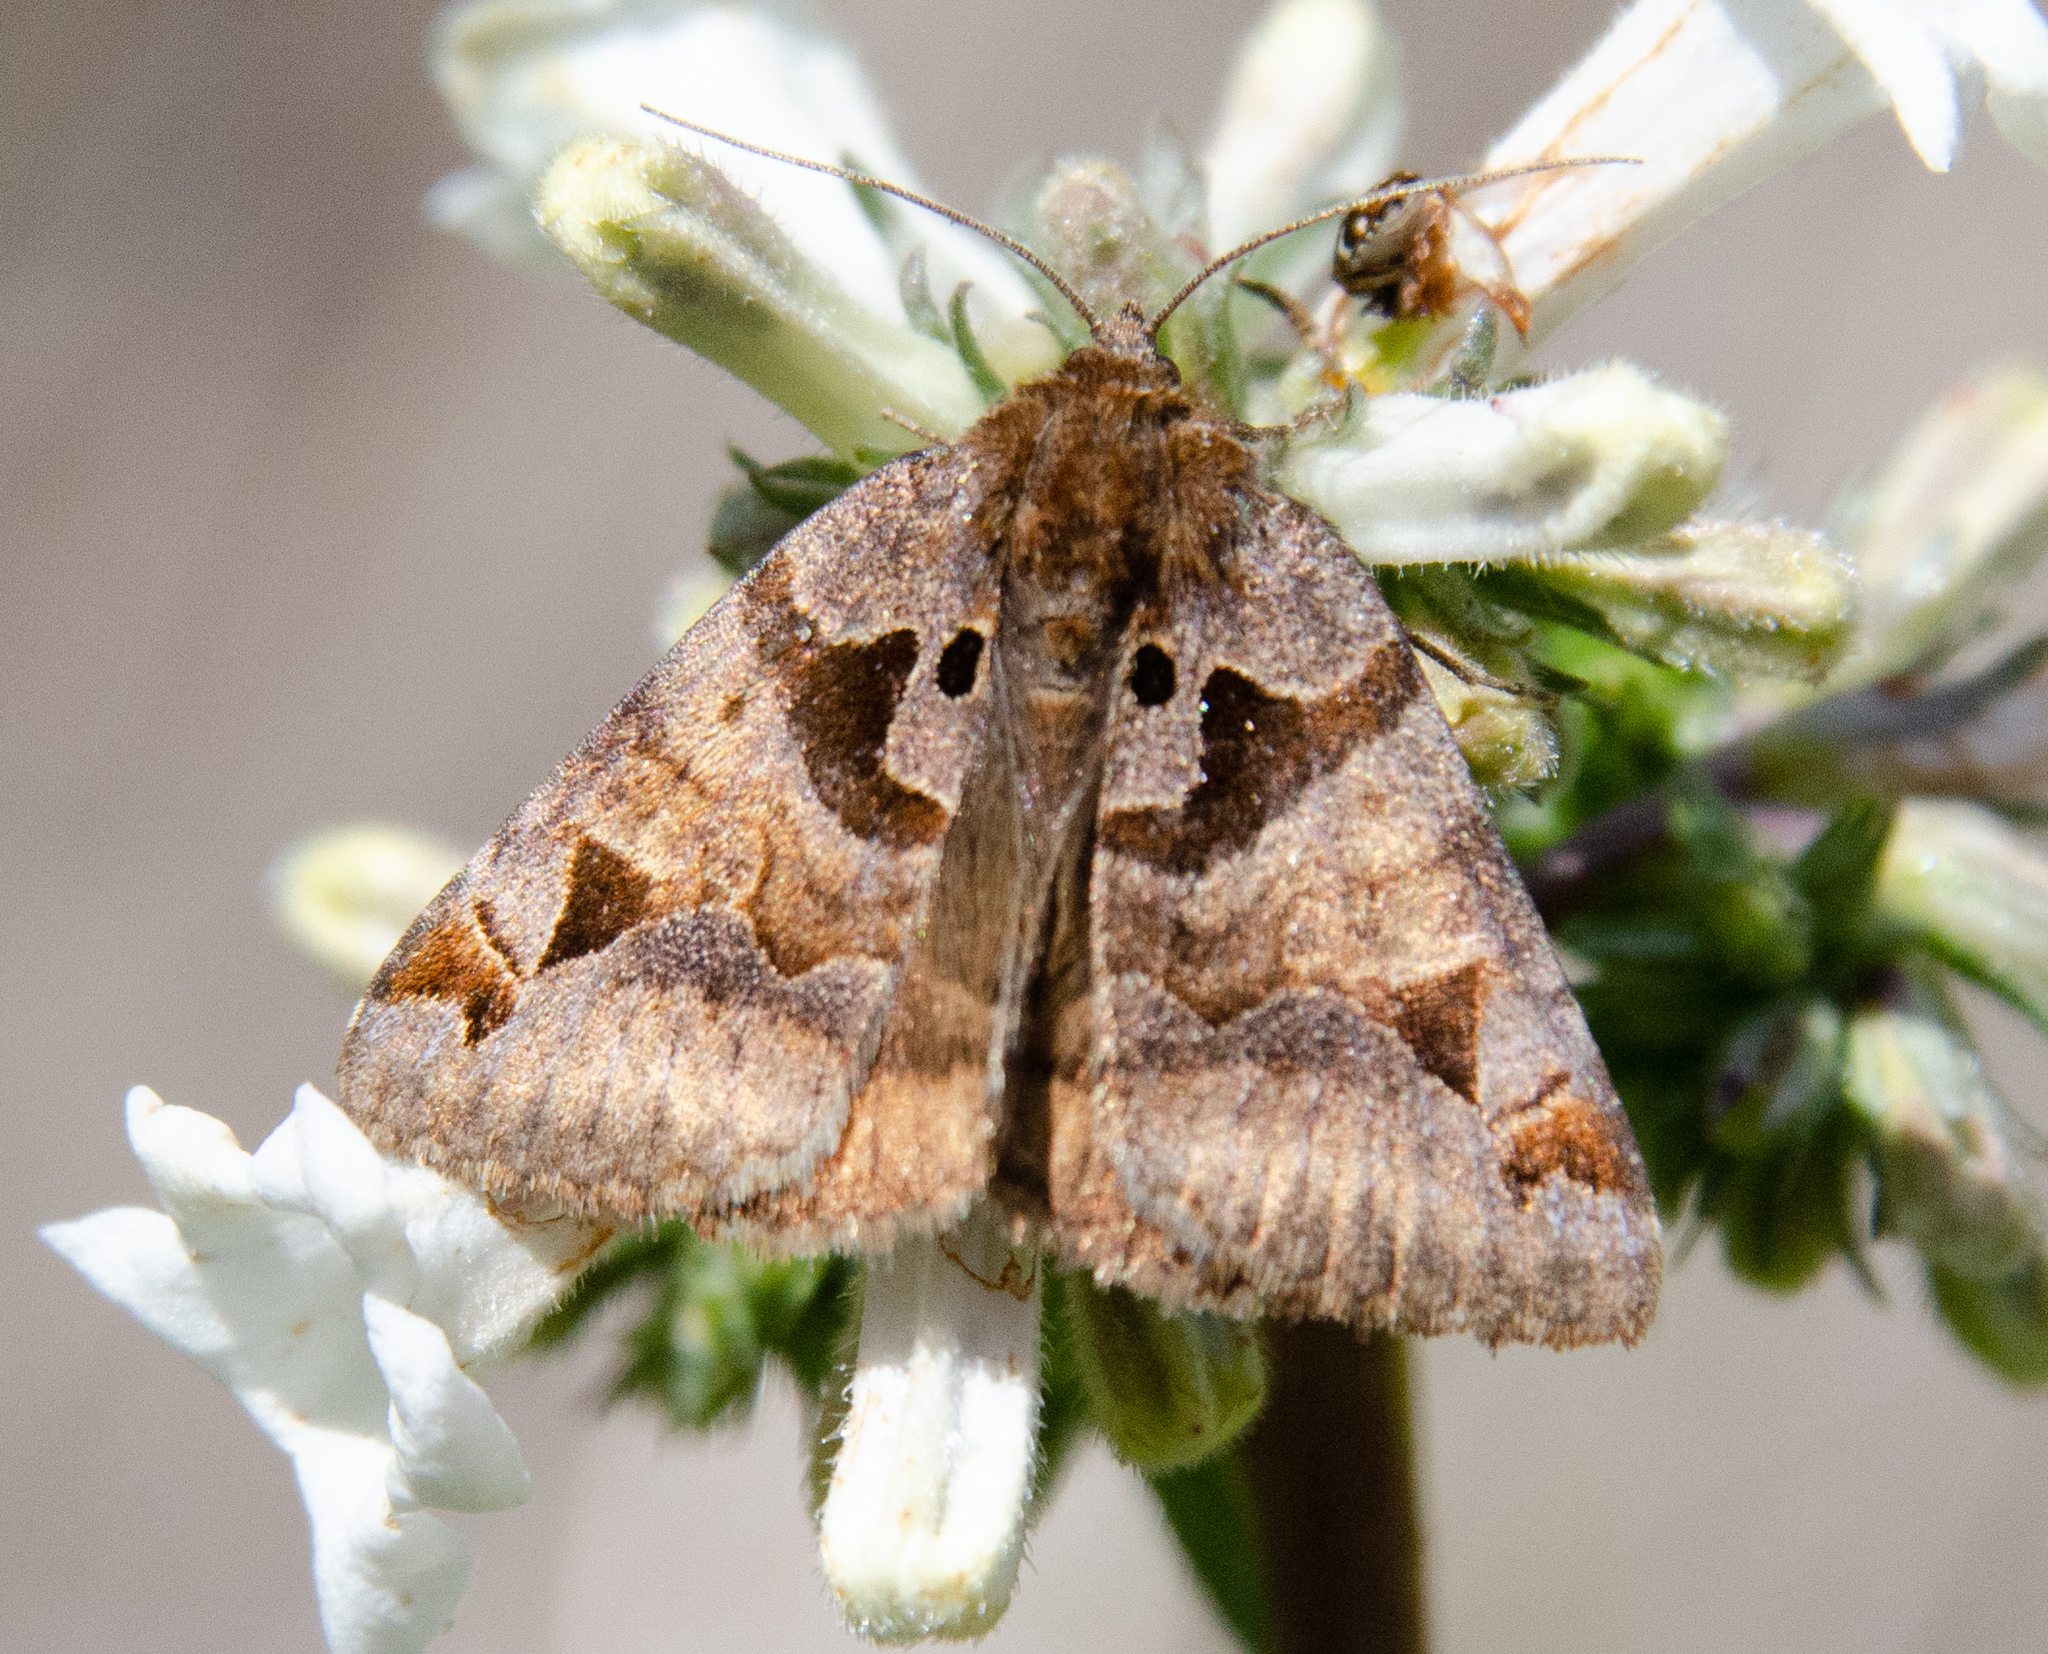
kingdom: Animalia
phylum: Arthropoda
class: Insecta
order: Lepidoptera
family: Erebidae
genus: Euclidia
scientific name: Euclidia ardita
